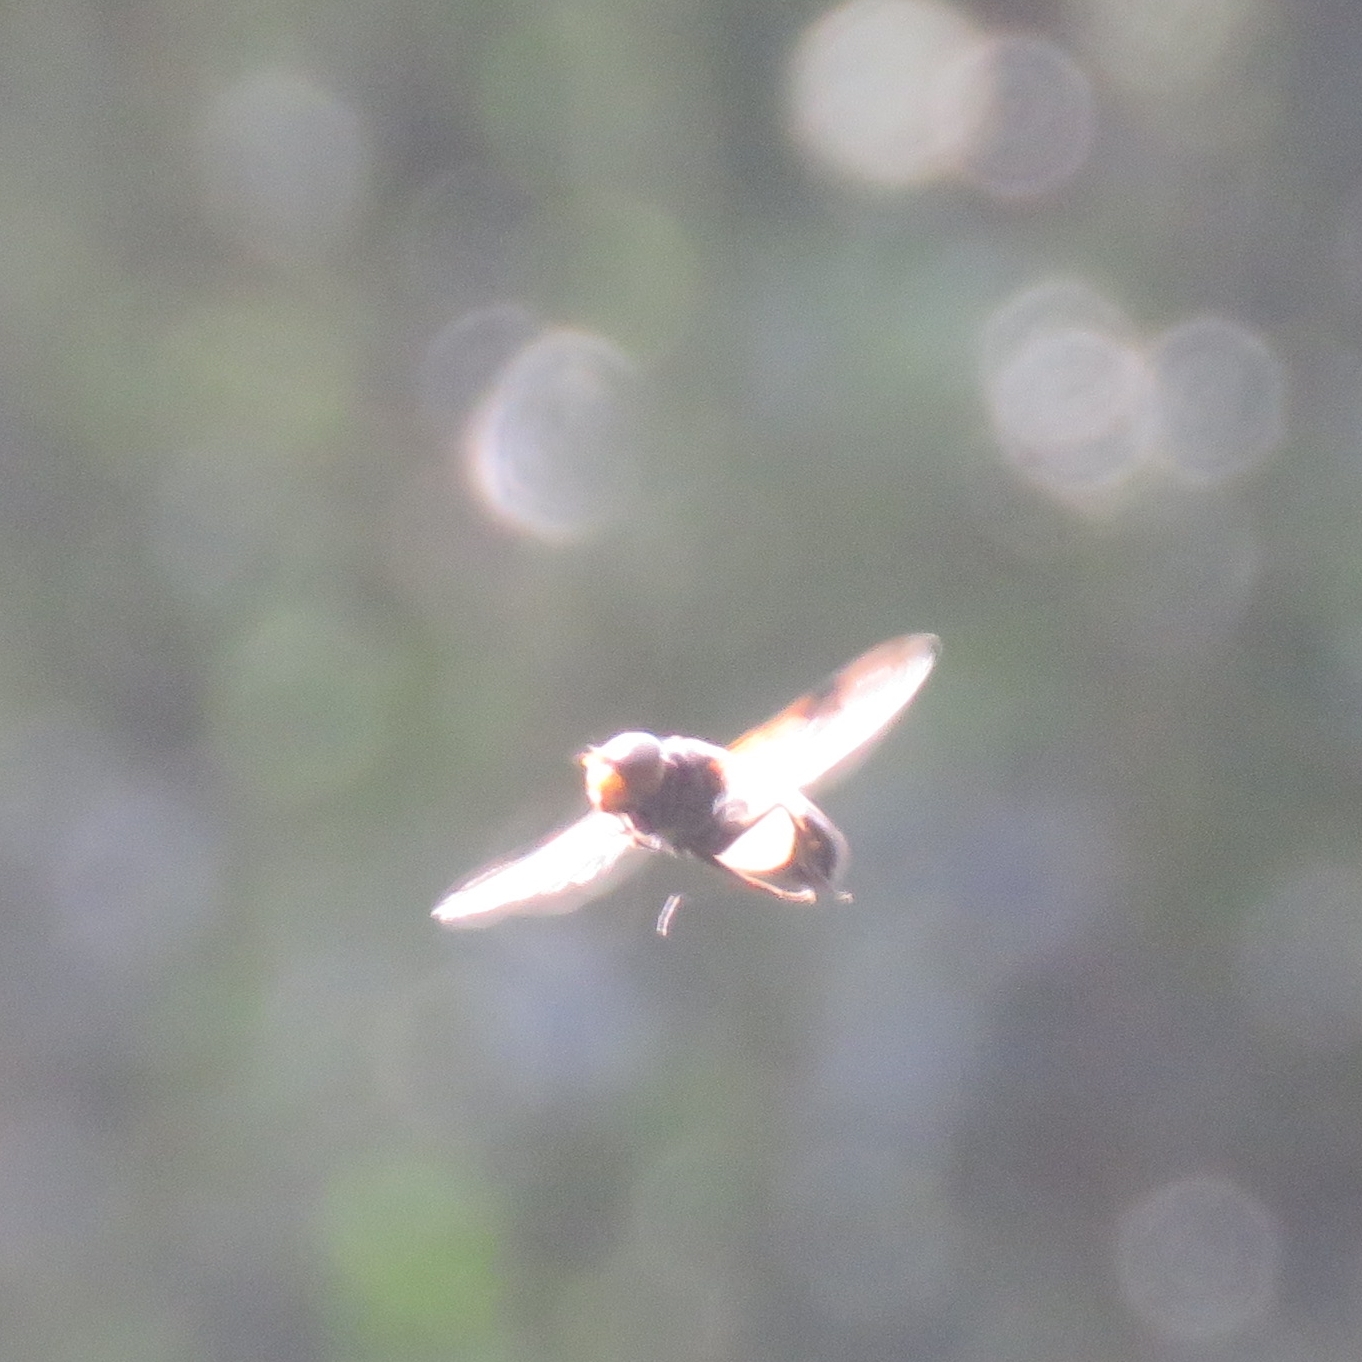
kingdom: Animalia
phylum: Arthropoda
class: Insecta
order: Diptera
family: Syrphidae
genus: Volucella
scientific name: Volucella pellucens
